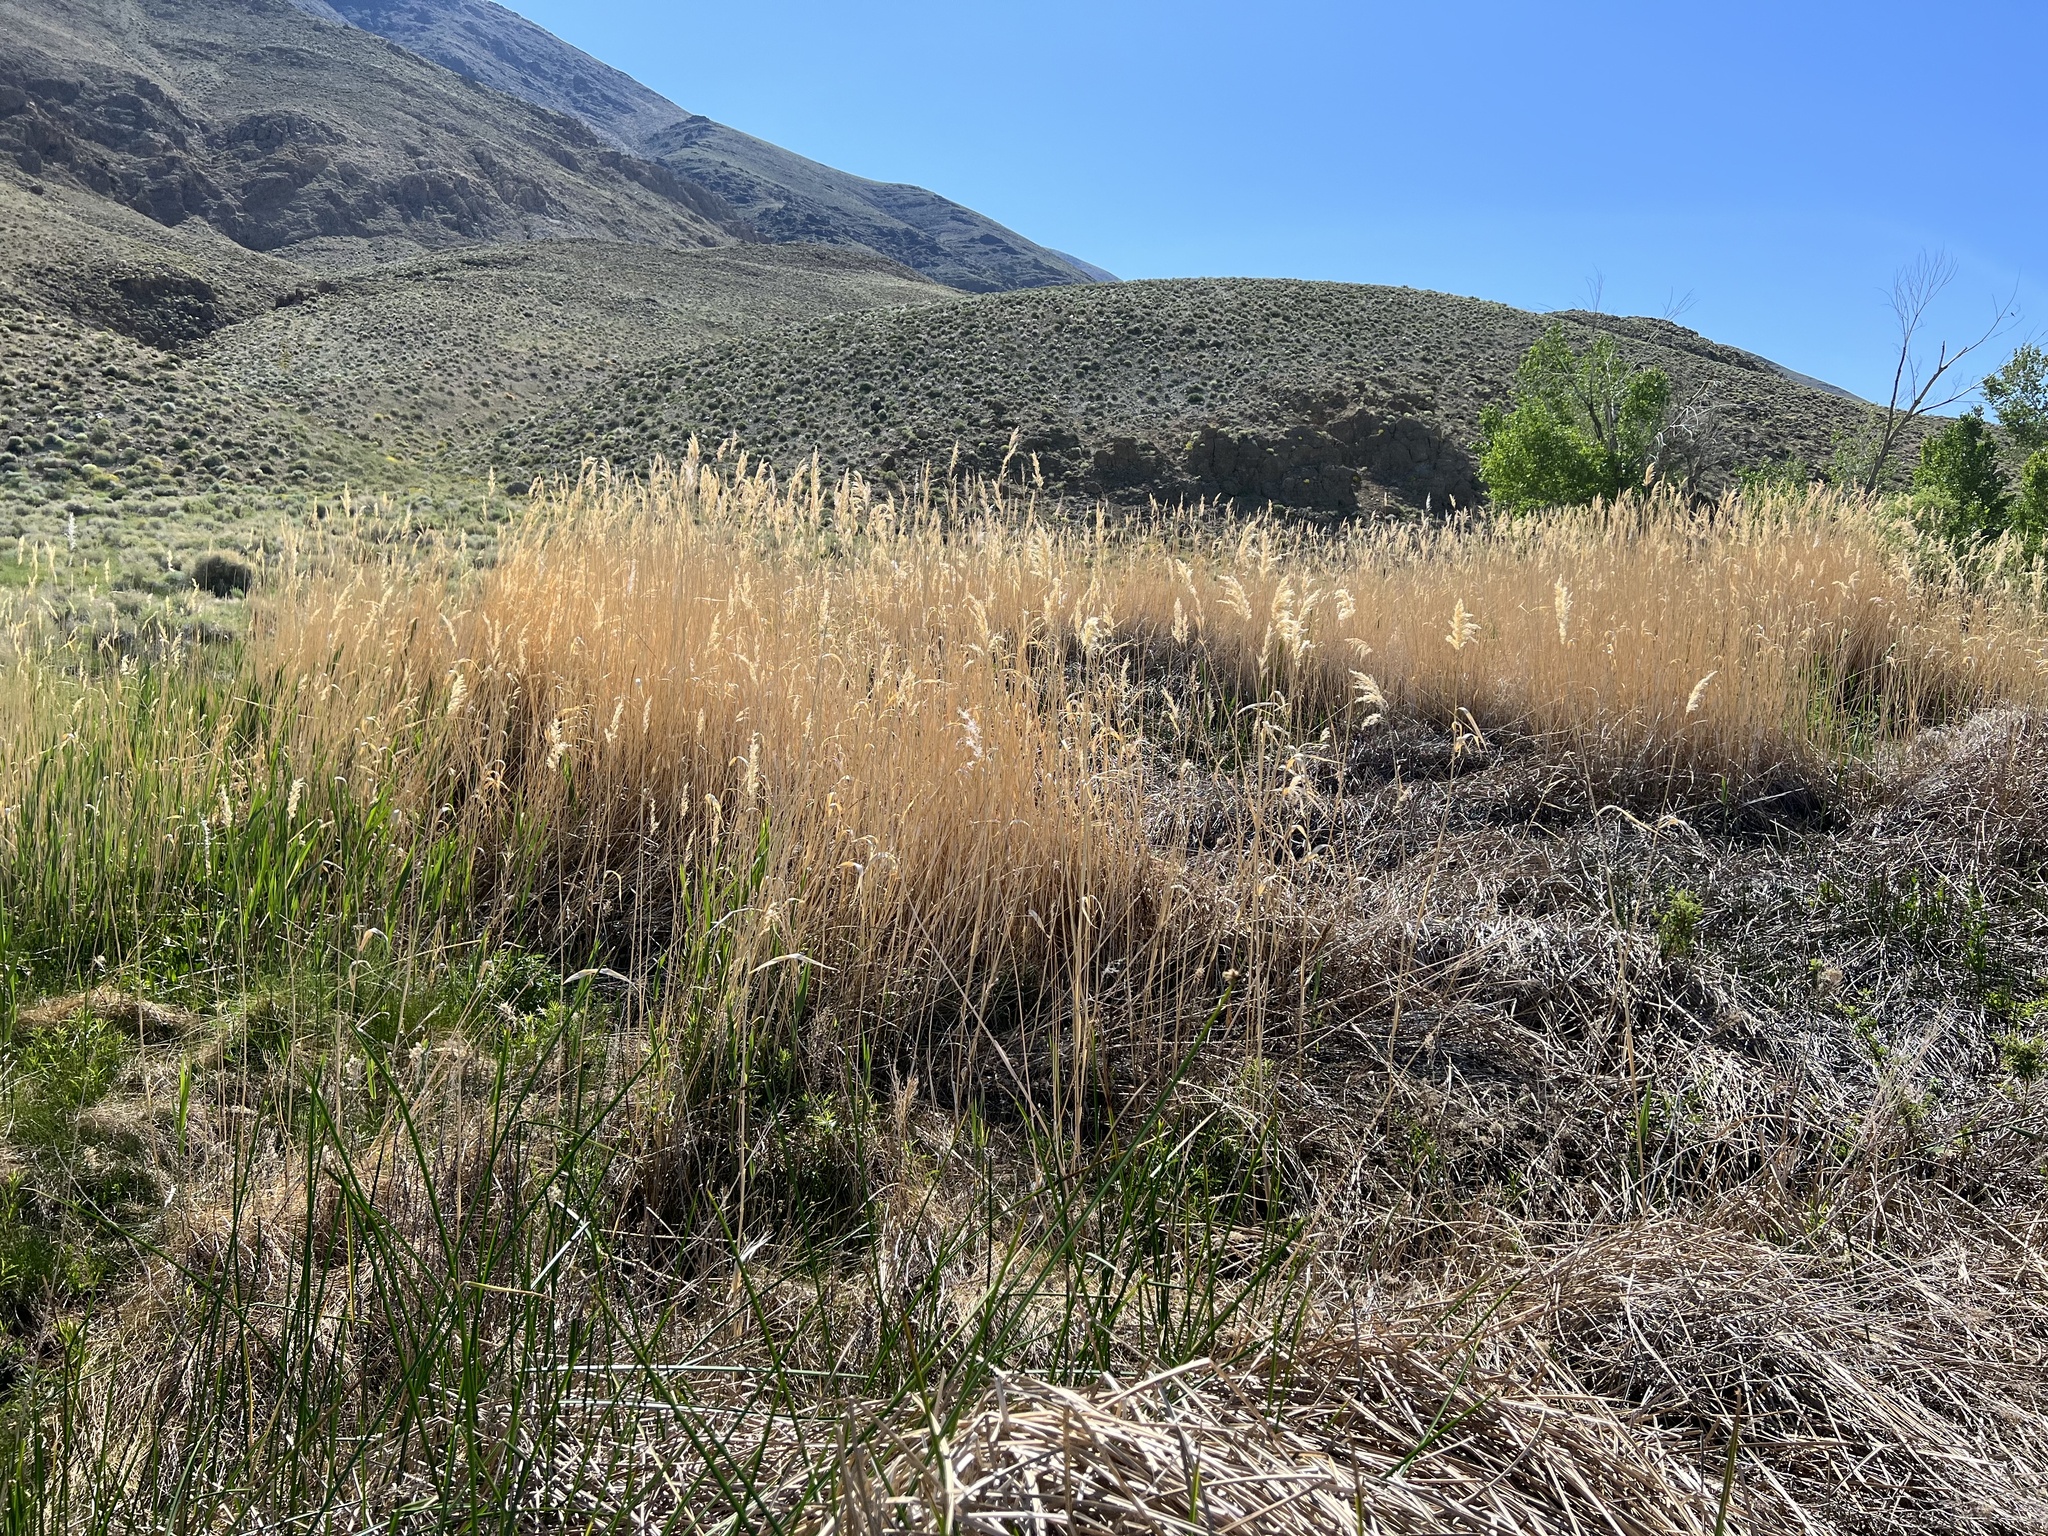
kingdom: Plantae
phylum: Tracheophyta
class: Liliopsida
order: Poales
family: Poaceae
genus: Phragmites
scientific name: Phragmites australis
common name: Common reed
